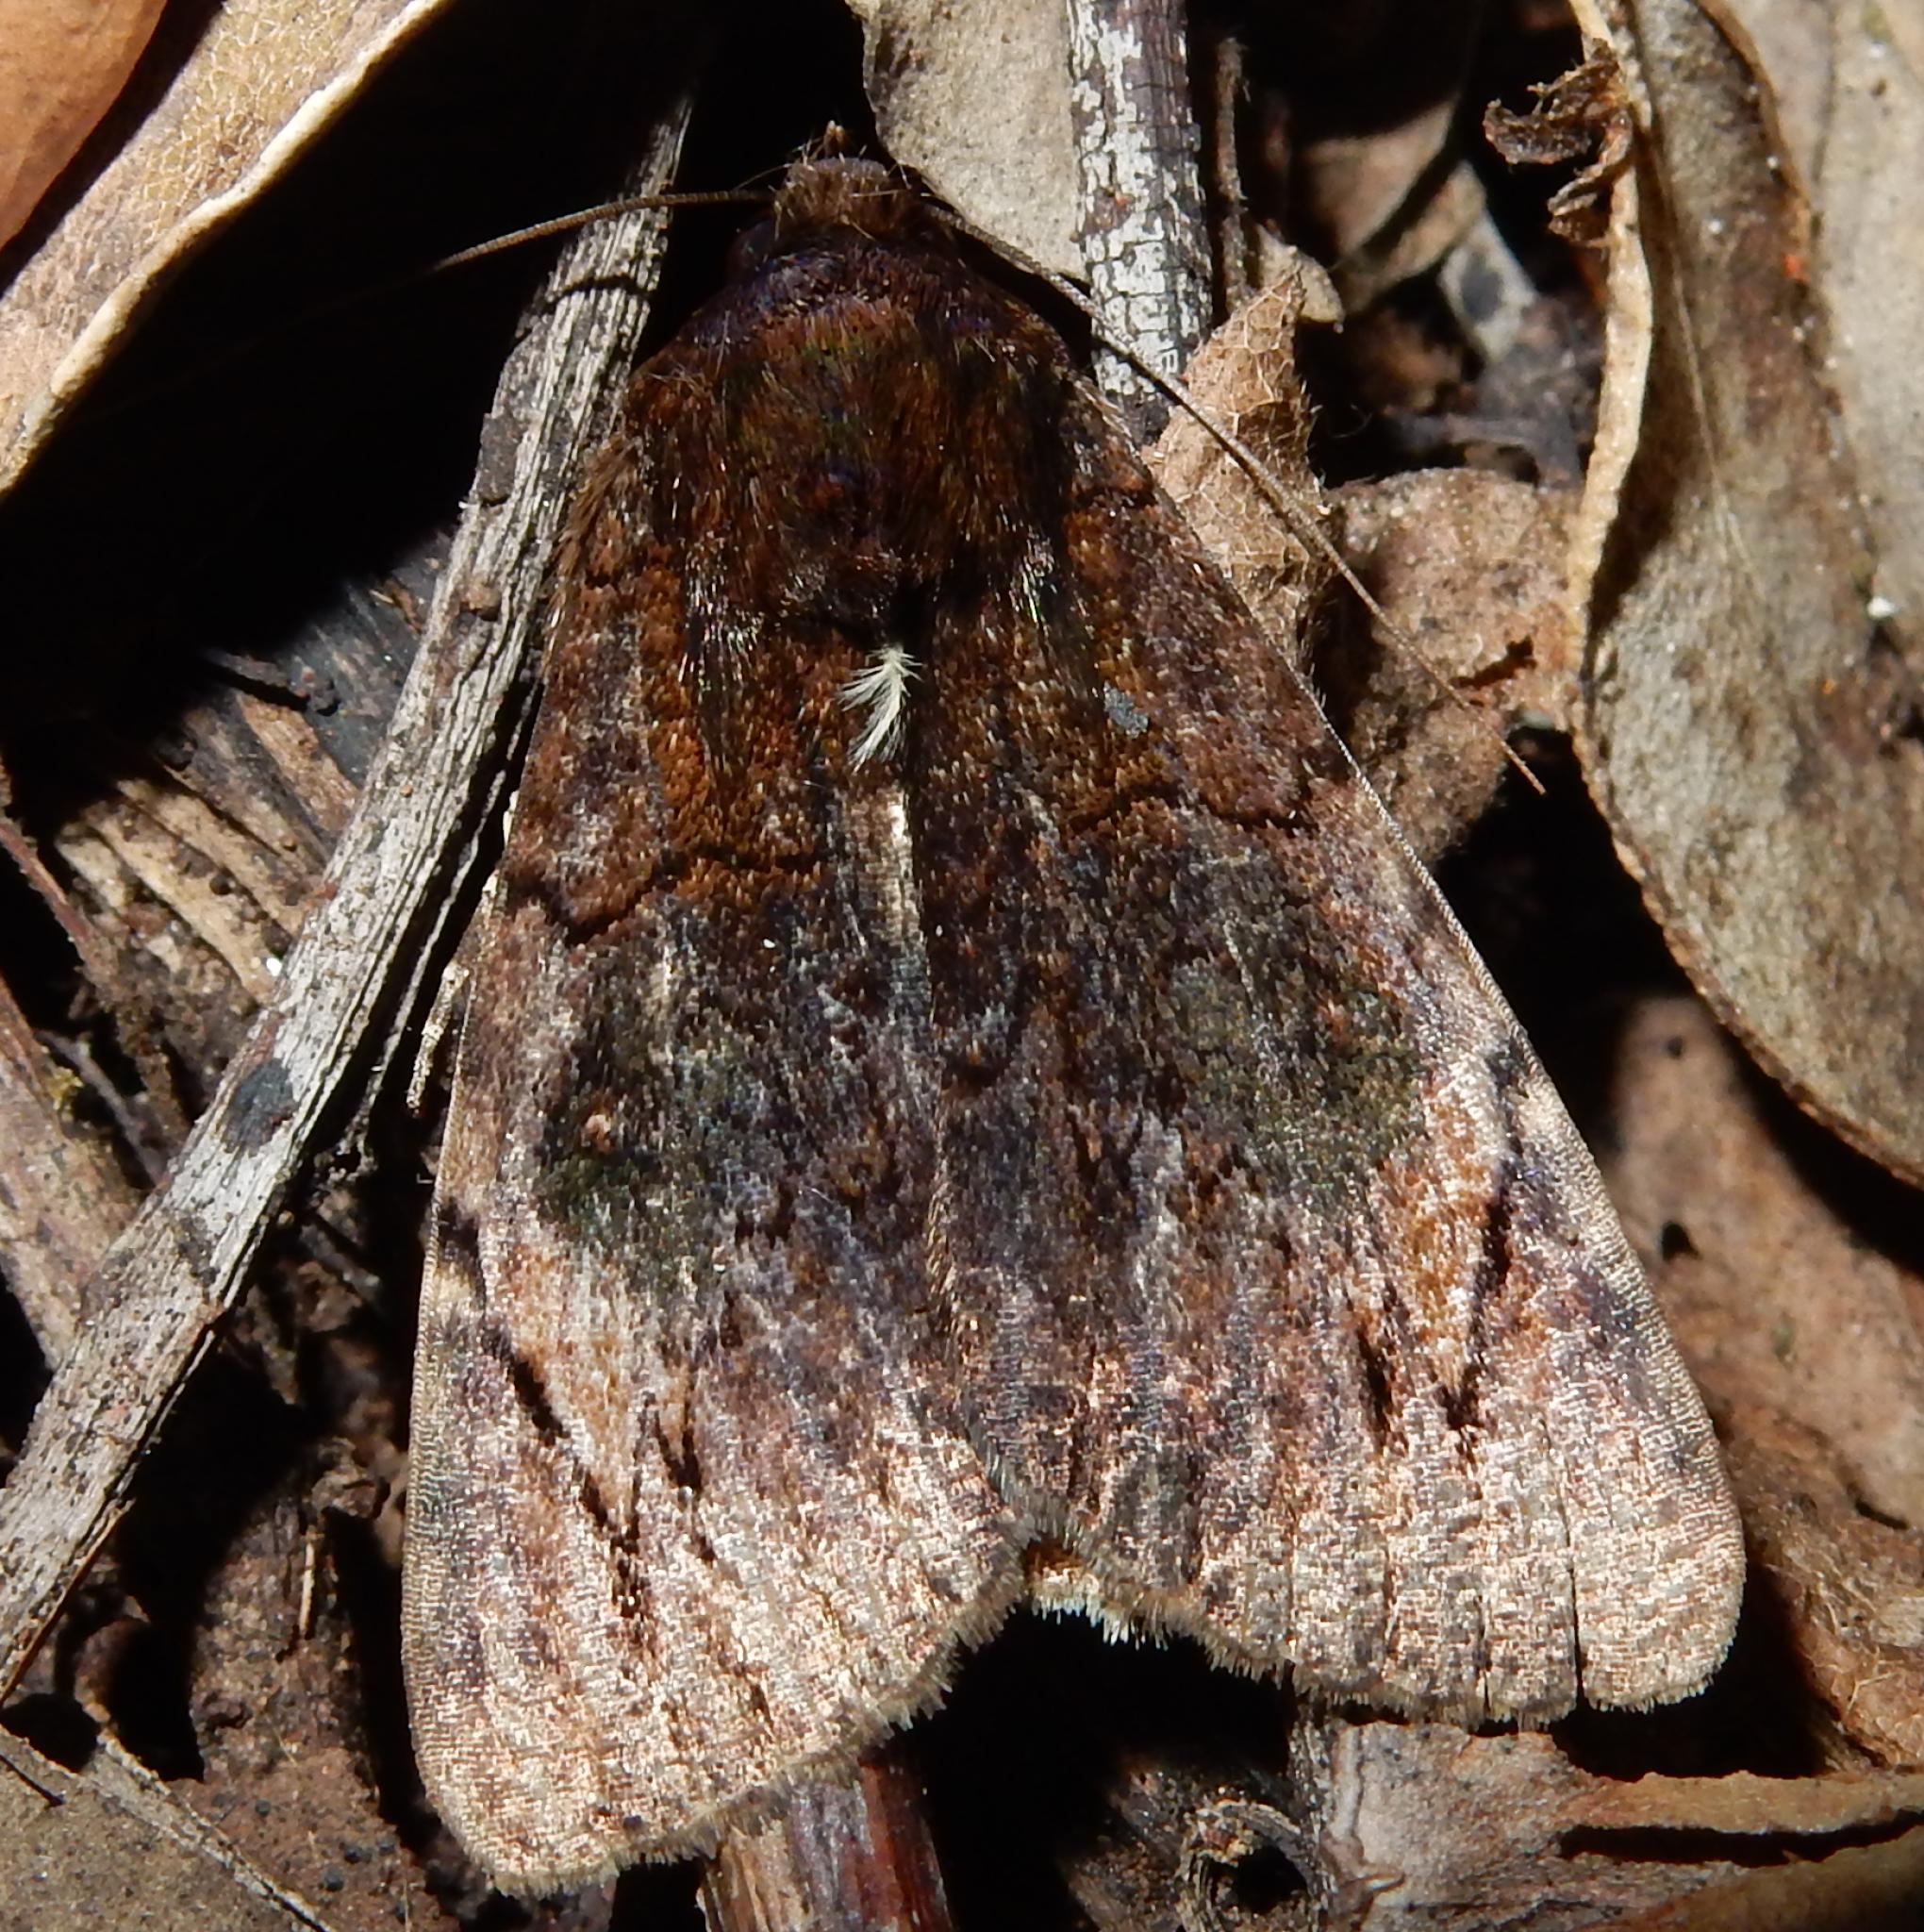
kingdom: Animalia
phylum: Arthropoda
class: Insecta
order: Lepidoptera
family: Erebidae
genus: Ulotrichopus
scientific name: Ulotrichopus variegata
